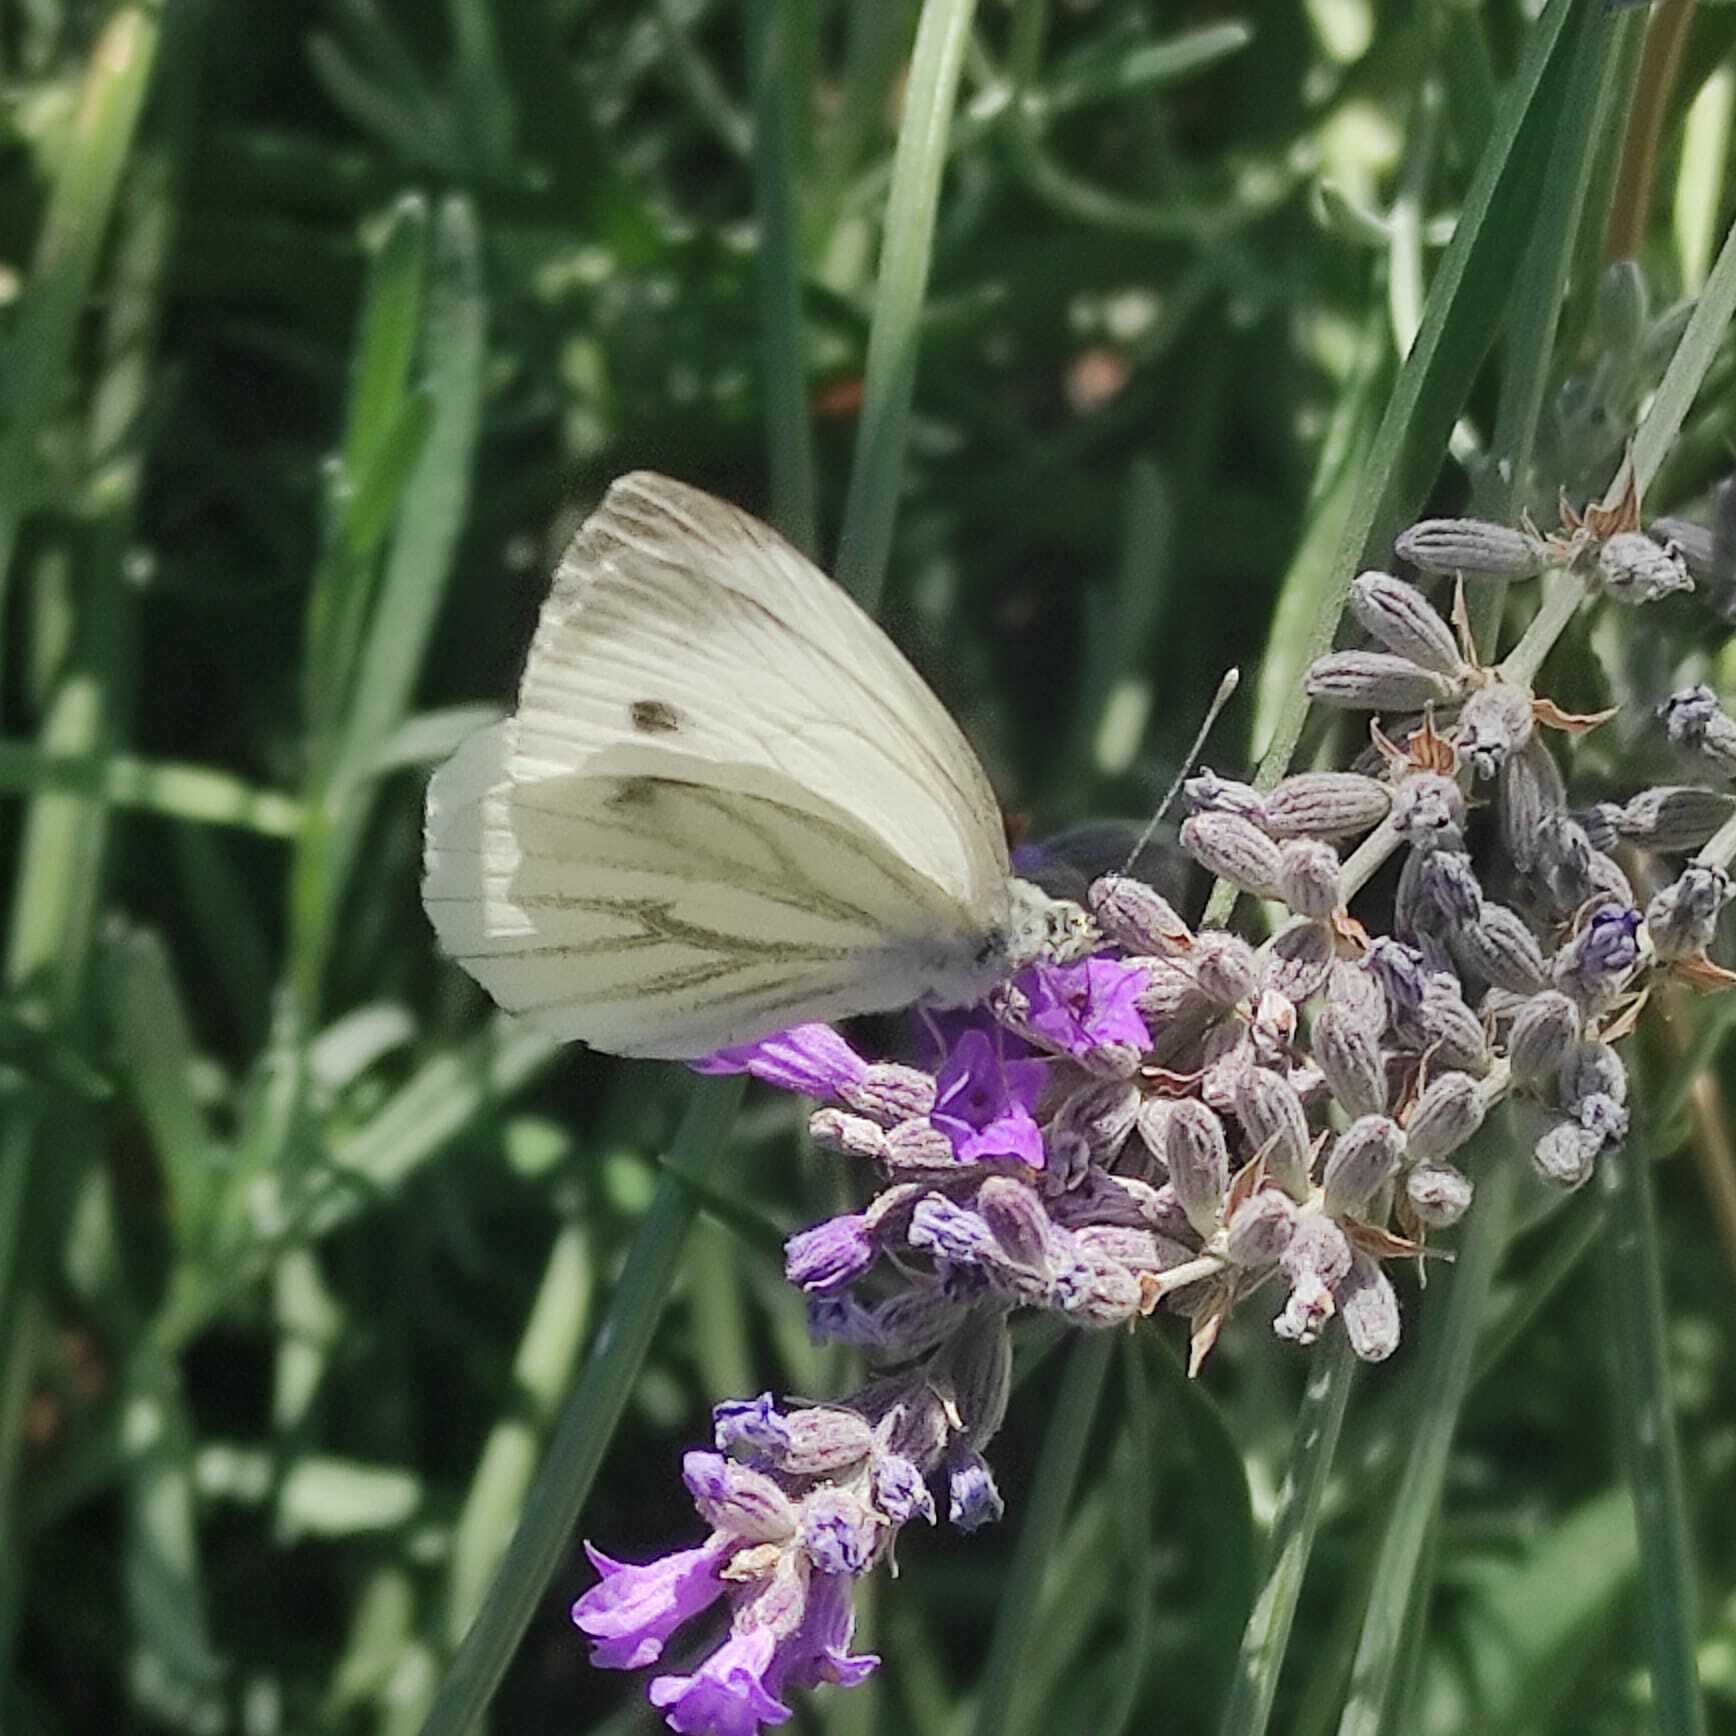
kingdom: Animalia
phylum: Arthropoda
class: Insecta
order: Lepidoptera
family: Pieridae
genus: Pieris
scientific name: Pieris napi
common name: Green-veined white
